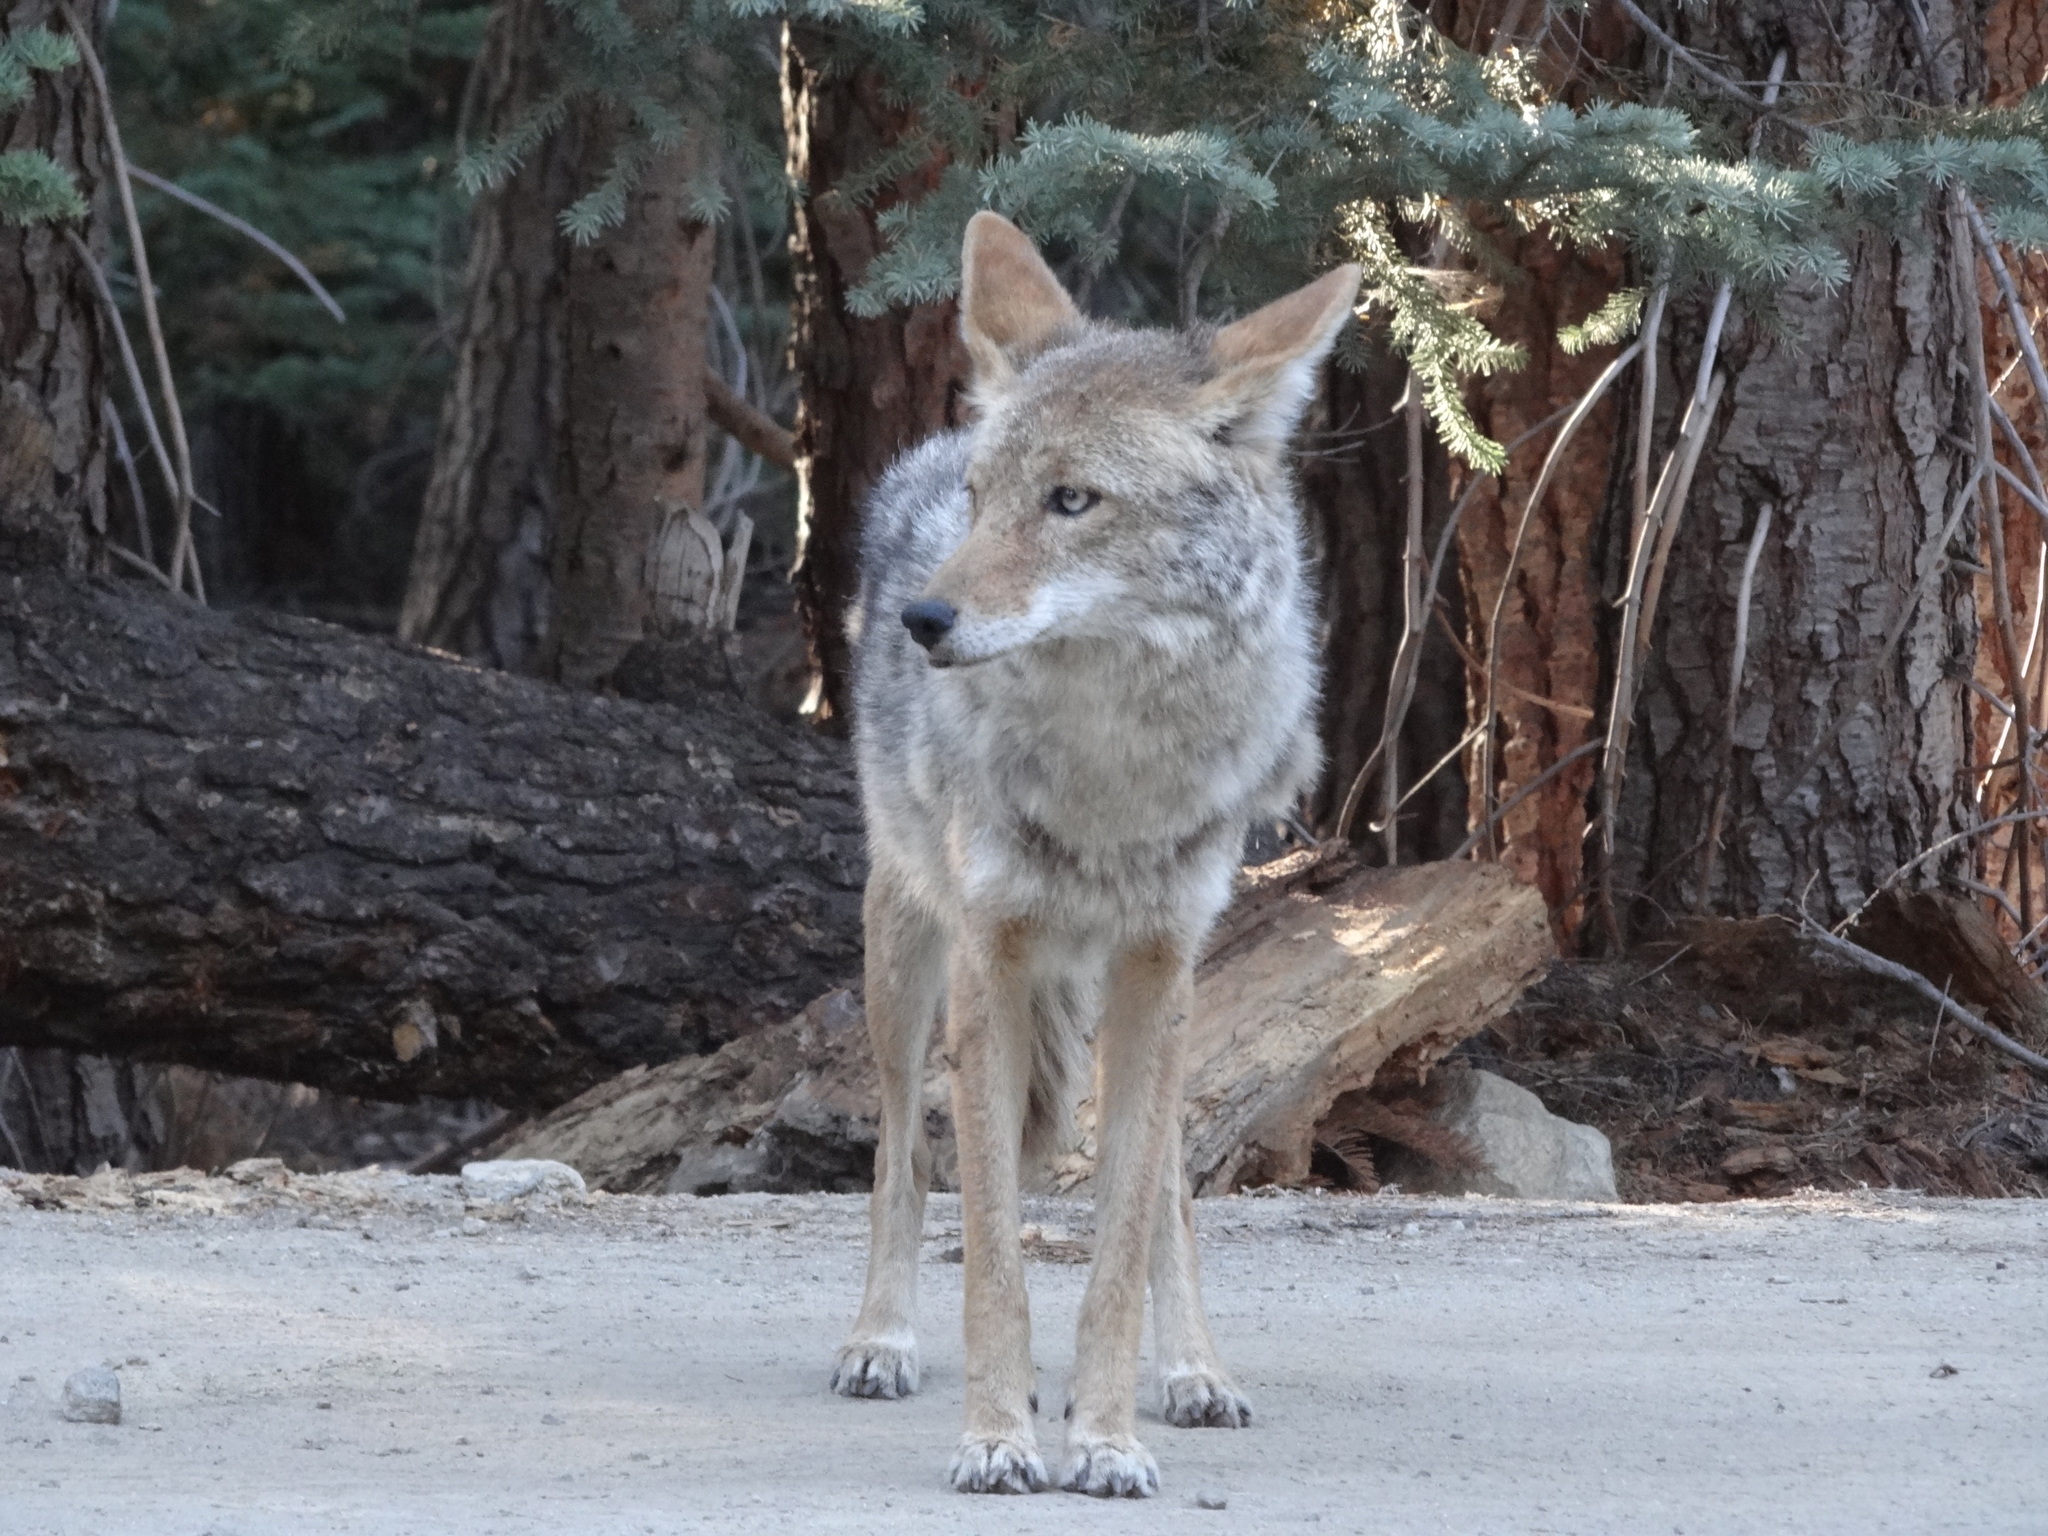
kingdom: Animalia
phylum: Chordata
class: Mammalia
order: Carnivora
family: Canidae
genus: Canis
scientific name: Canis latrans
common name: Coyote
